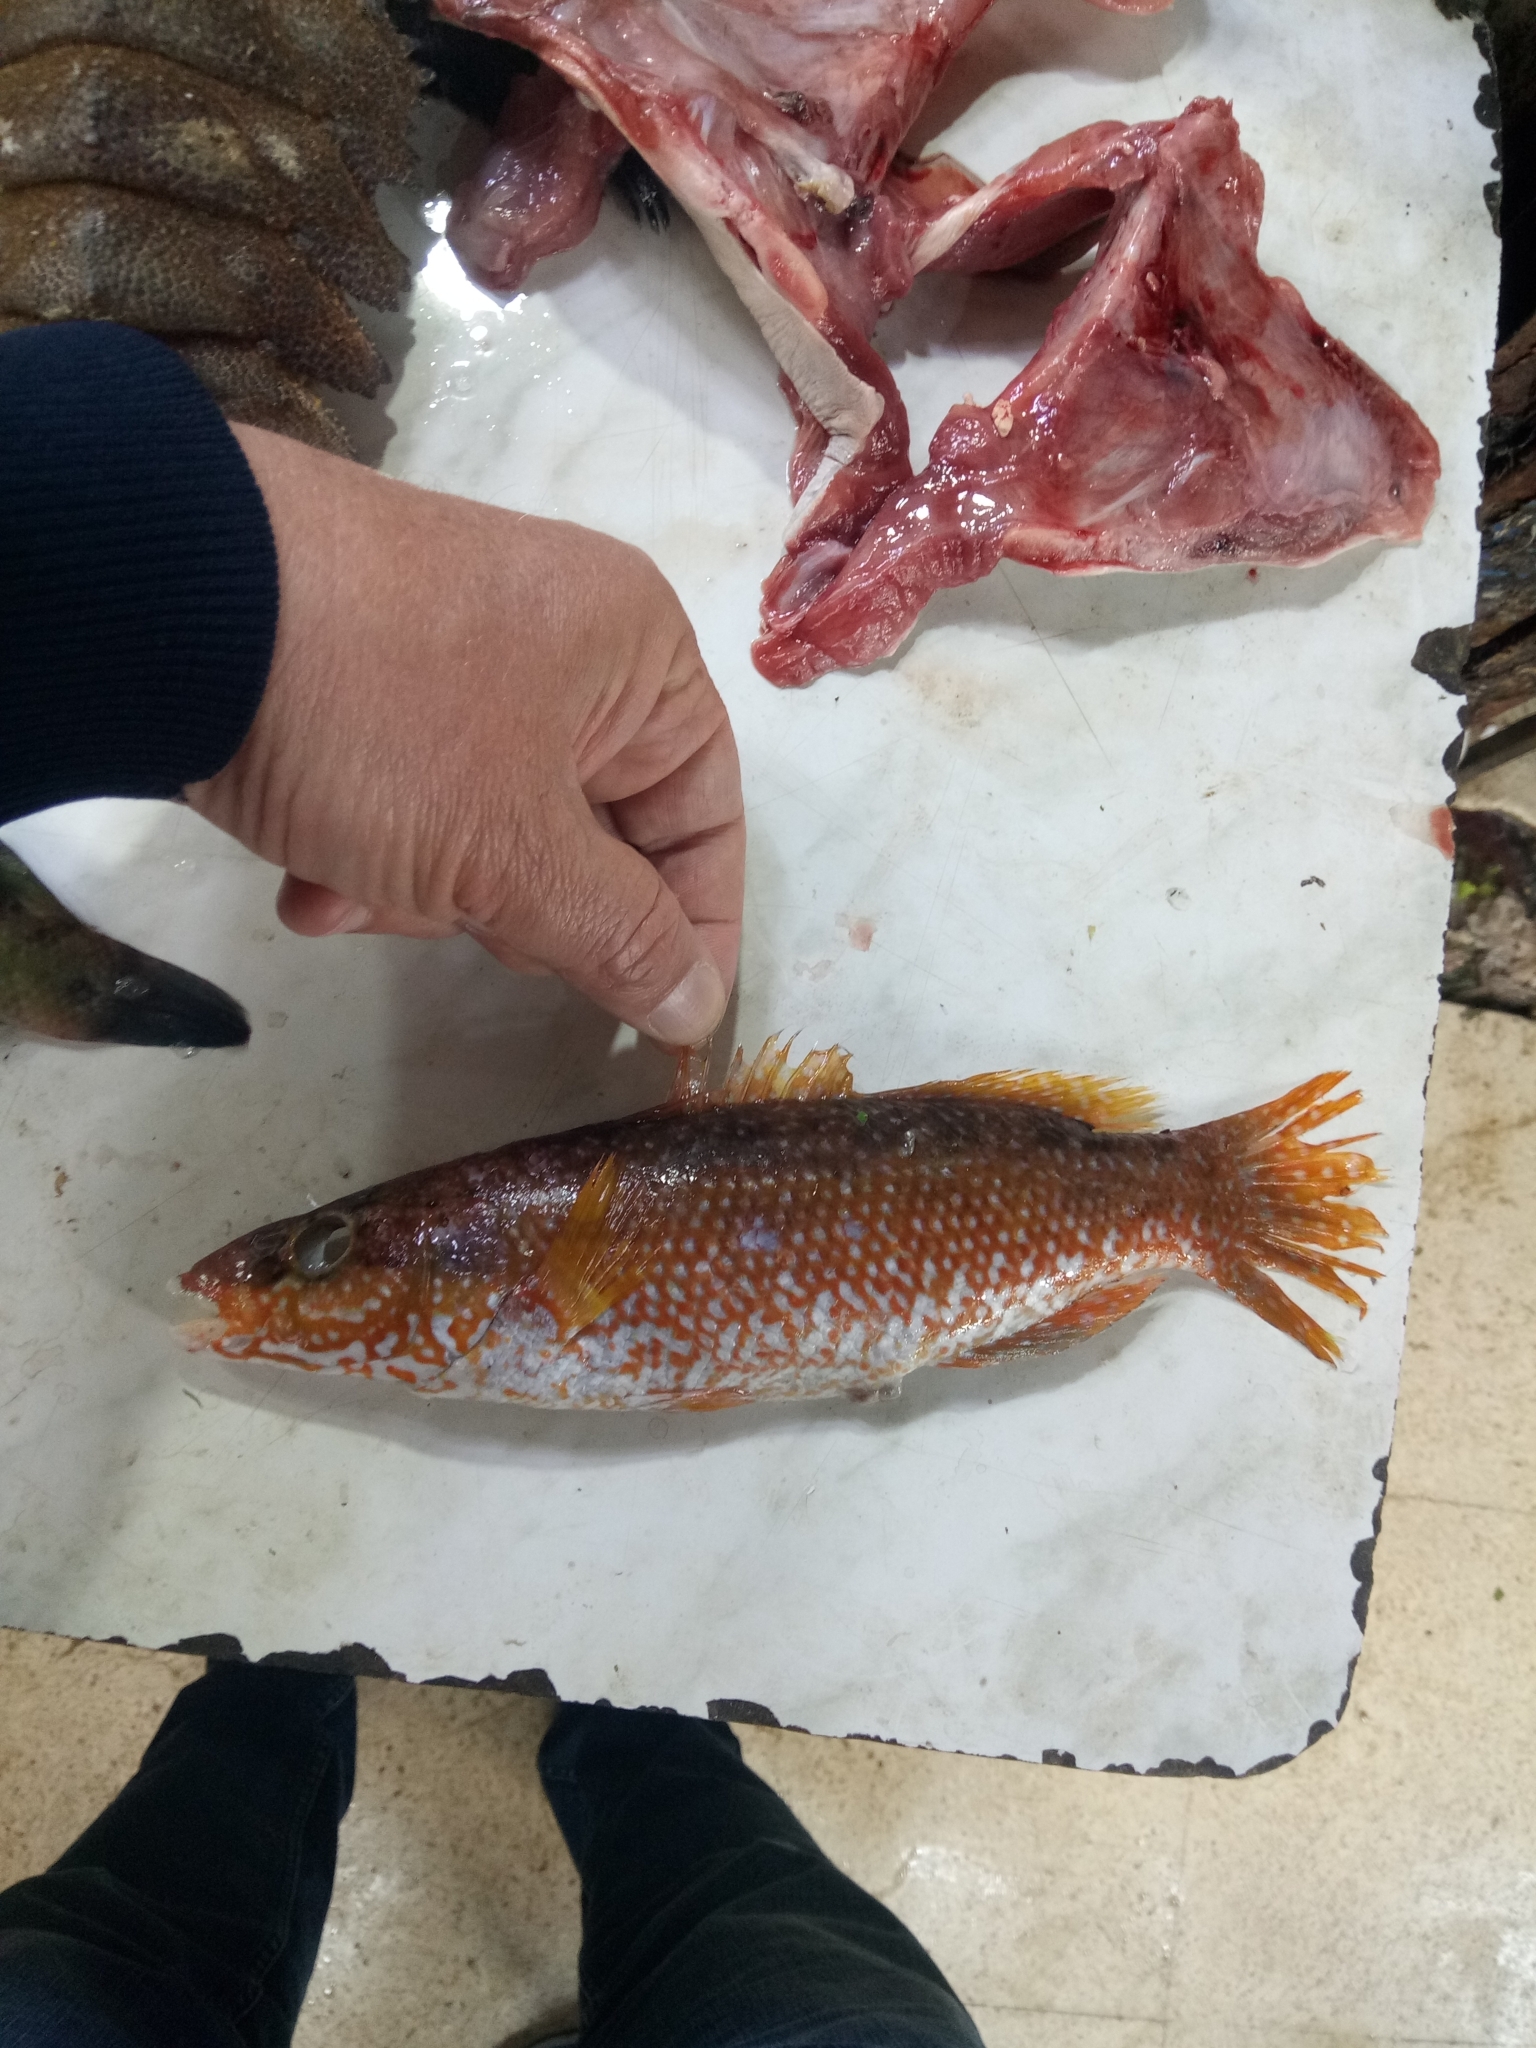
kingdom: Animalia
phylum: Chordata
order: Perciformes
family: Labridae
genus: Labrus
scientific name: Labrus viridis
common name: Green wrasse
